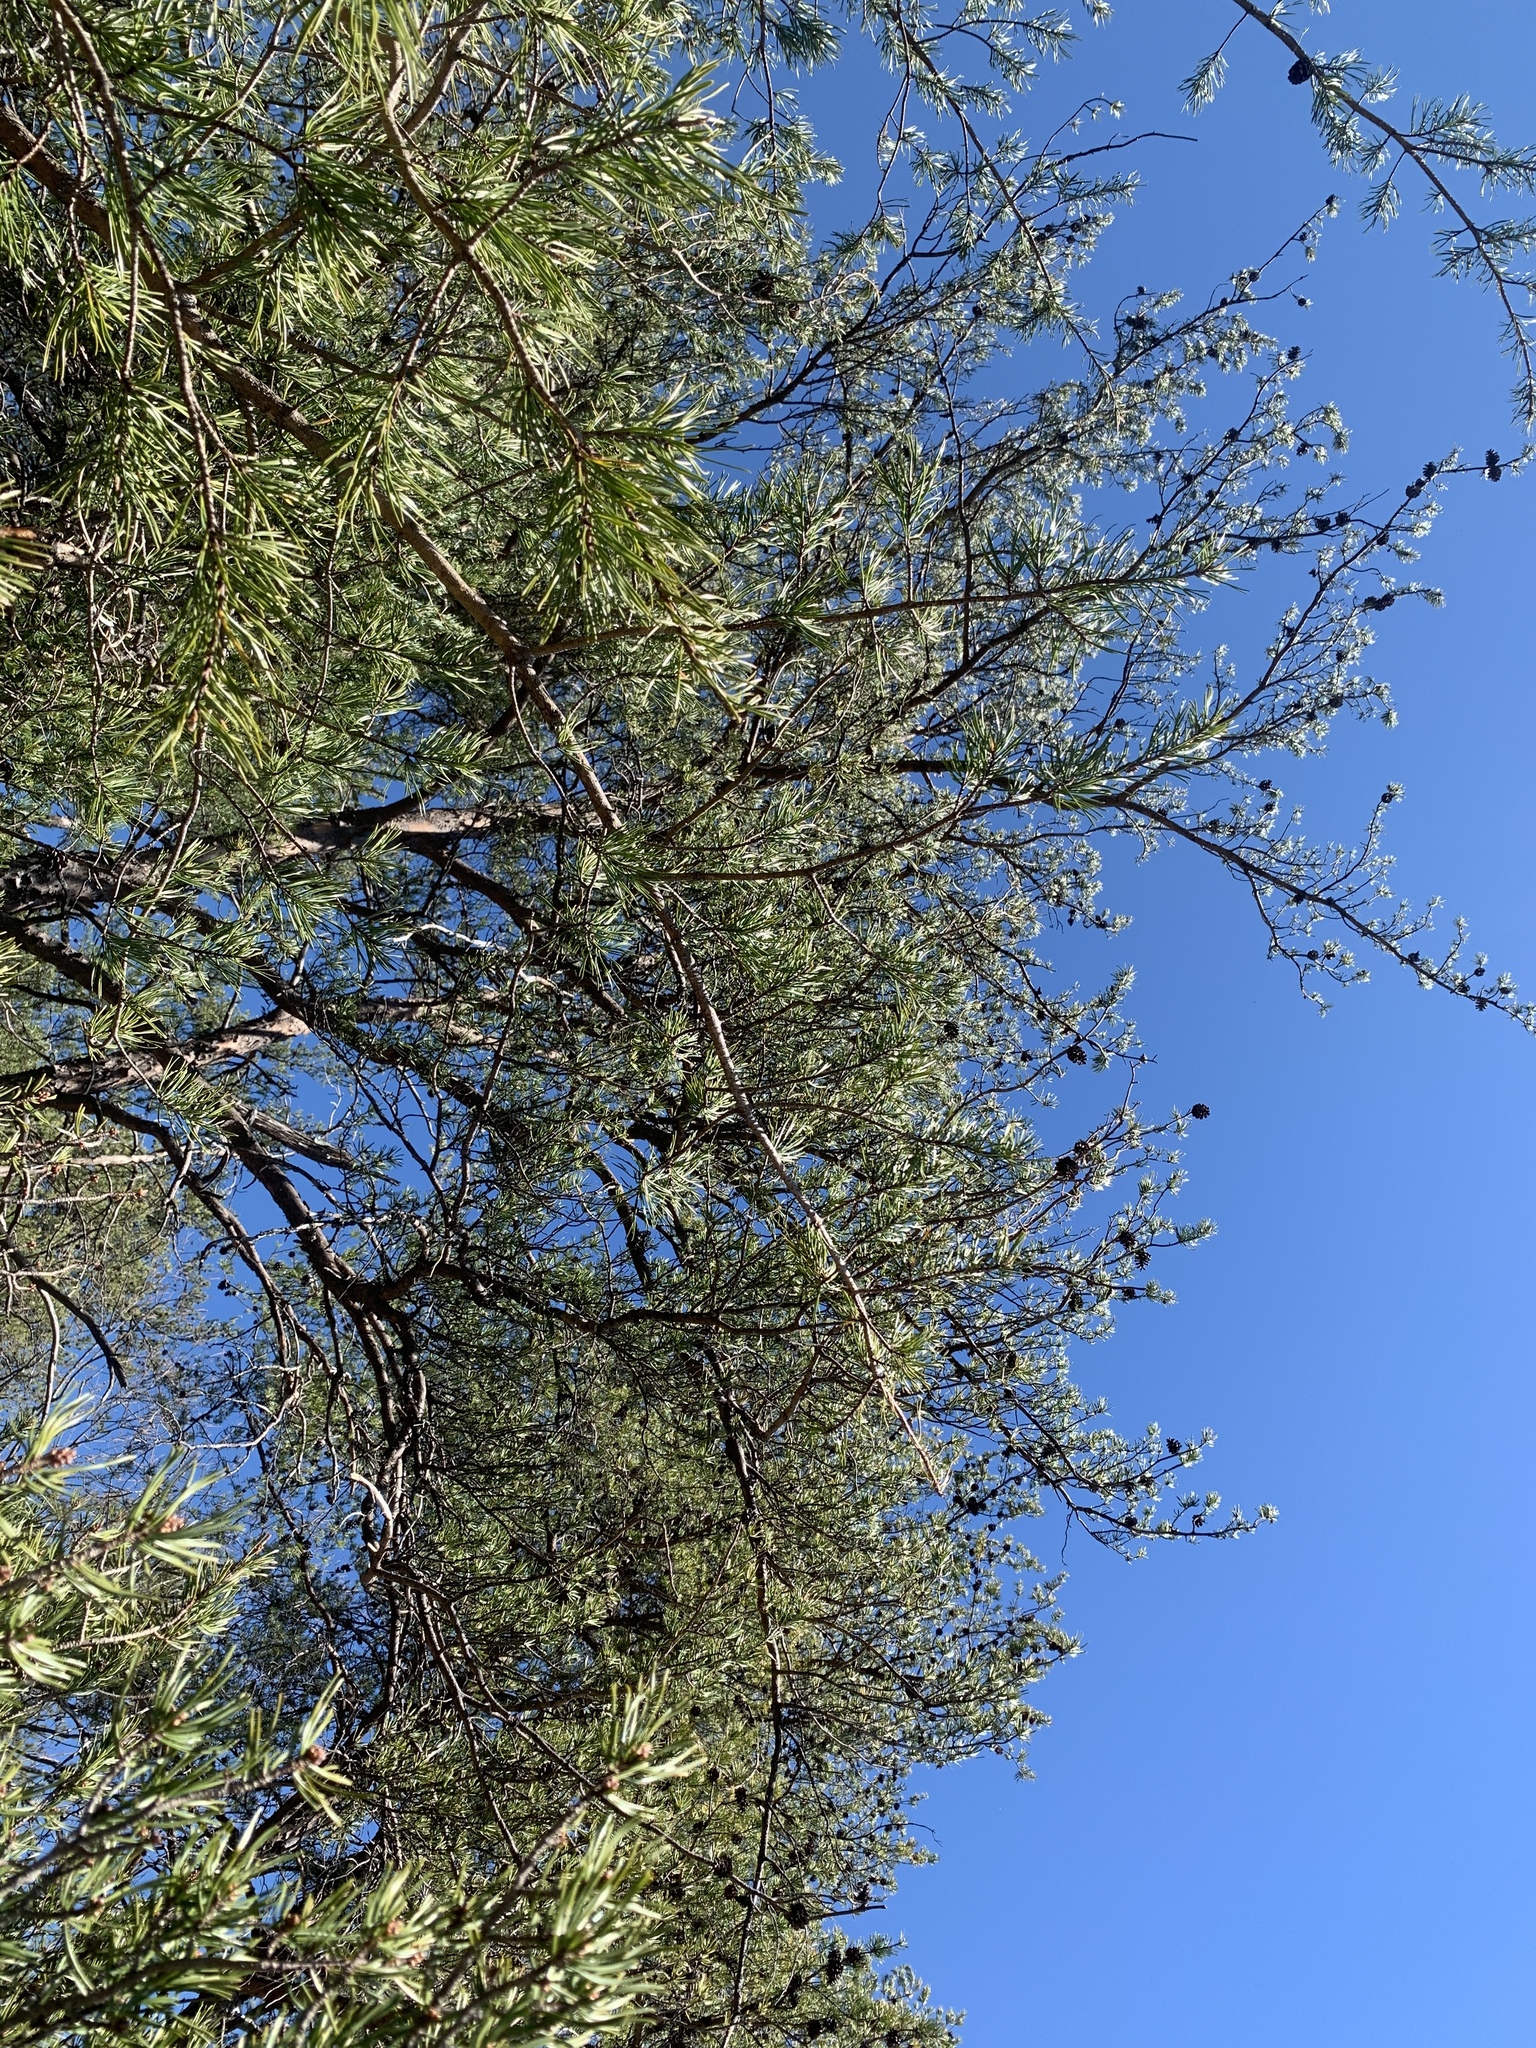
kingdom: Plantae
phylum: Tracheophyta
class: Pinopsida
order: Pinales
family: Pinaceae
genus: Pinus
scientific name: Pinus virginiana
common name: Scrub pine
